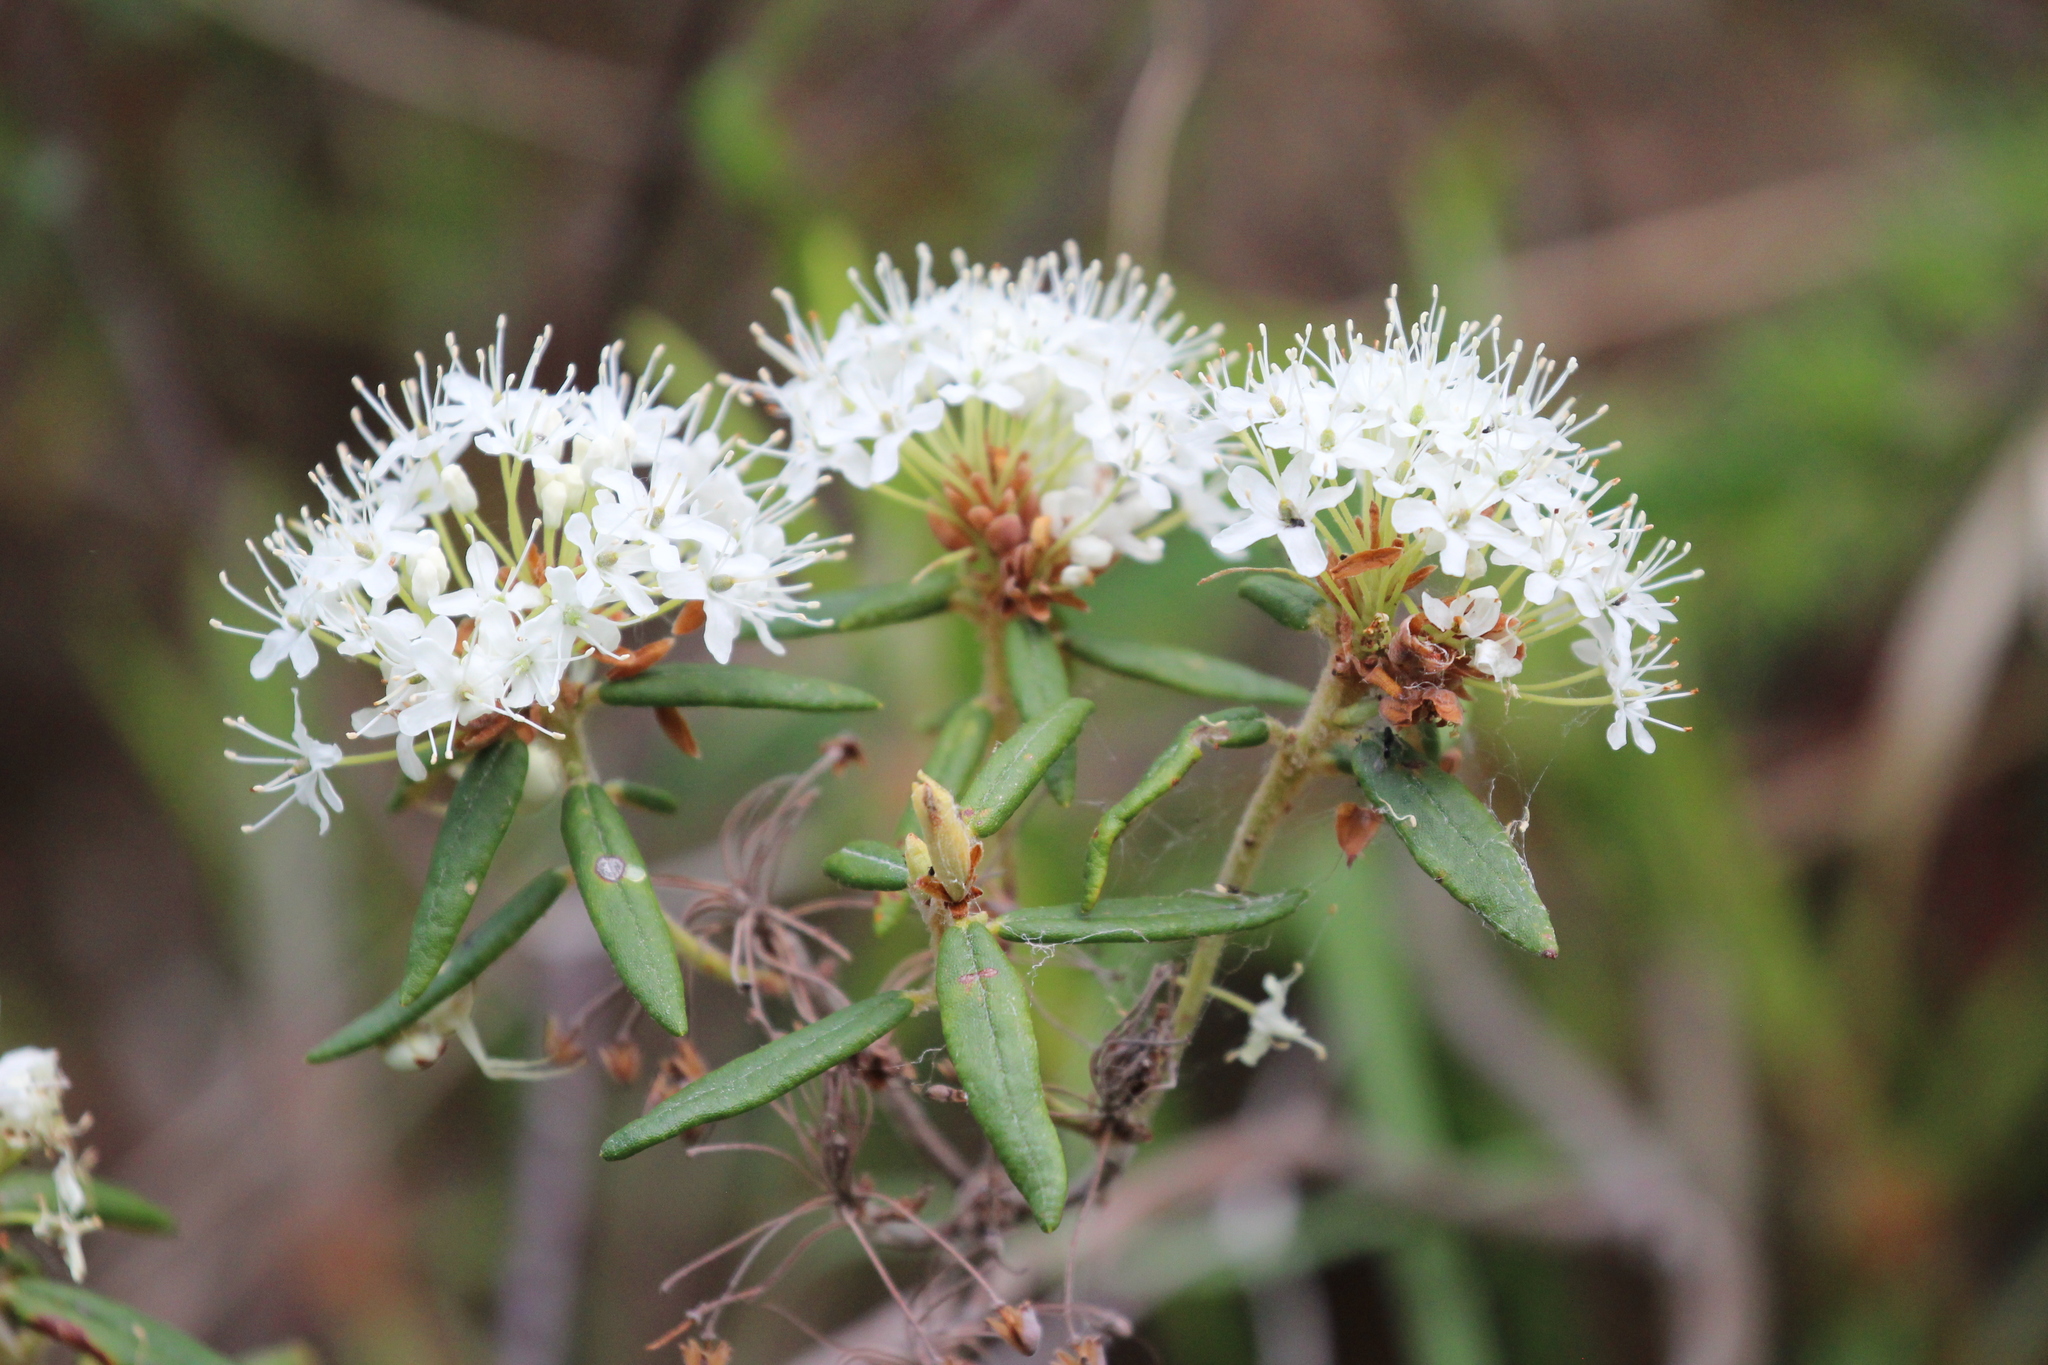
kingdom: Plantae
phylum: Tracheophyta
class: Magnoliopsida
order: Ericales
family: Ericaceae
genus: Rhododendron
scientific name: Rhododendron groenlandicum
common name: Bog labrador tea
